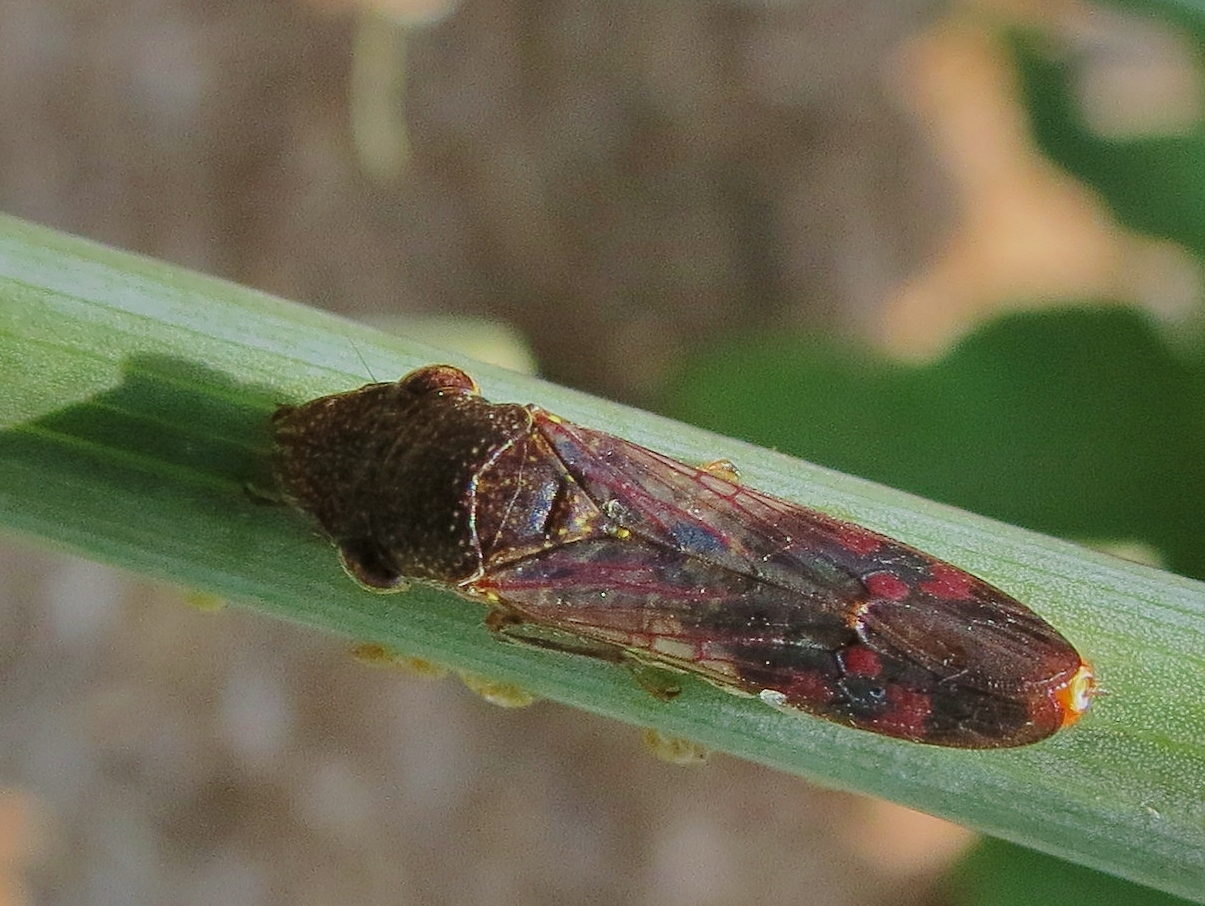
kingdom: Animalia
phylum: Arthropoda
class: Insecta
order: Hemiptera
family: Cicadellidae
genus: Homalodisca
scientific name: Homalodisca vitripennis
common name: Glassy-winged sharpshooter
